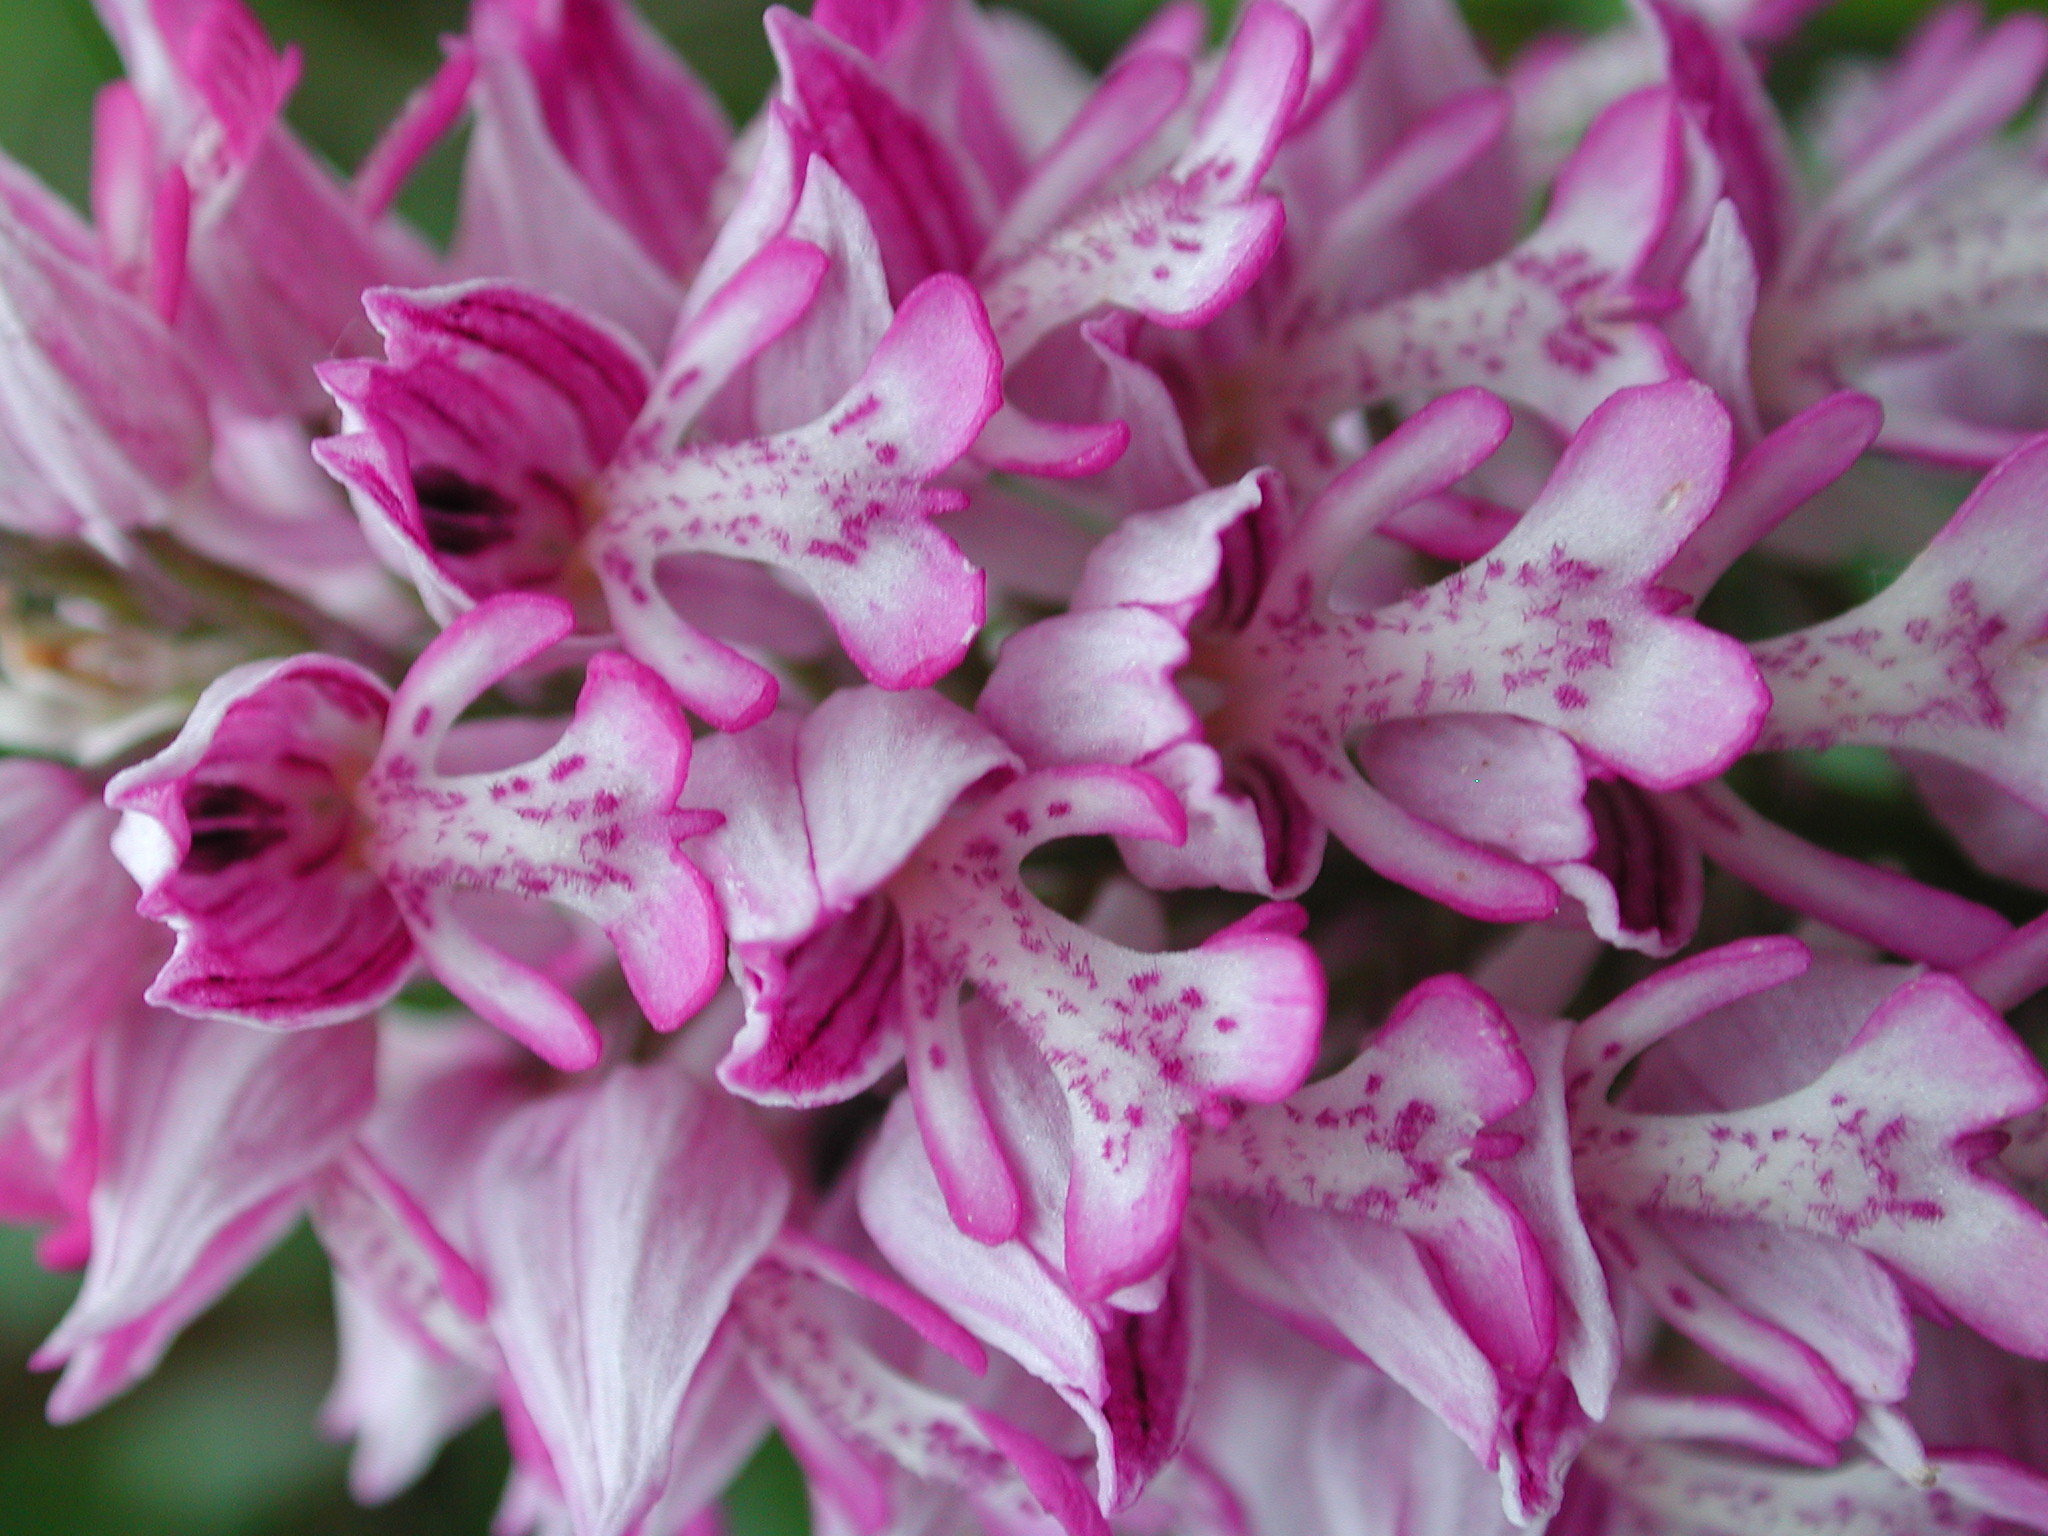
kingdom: Plantae
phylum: Tracheophyta
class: Liliopsida
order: Asparagales
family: Orchidaceae
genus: Orchis
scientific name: Orchis militaris
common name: Military orchid
